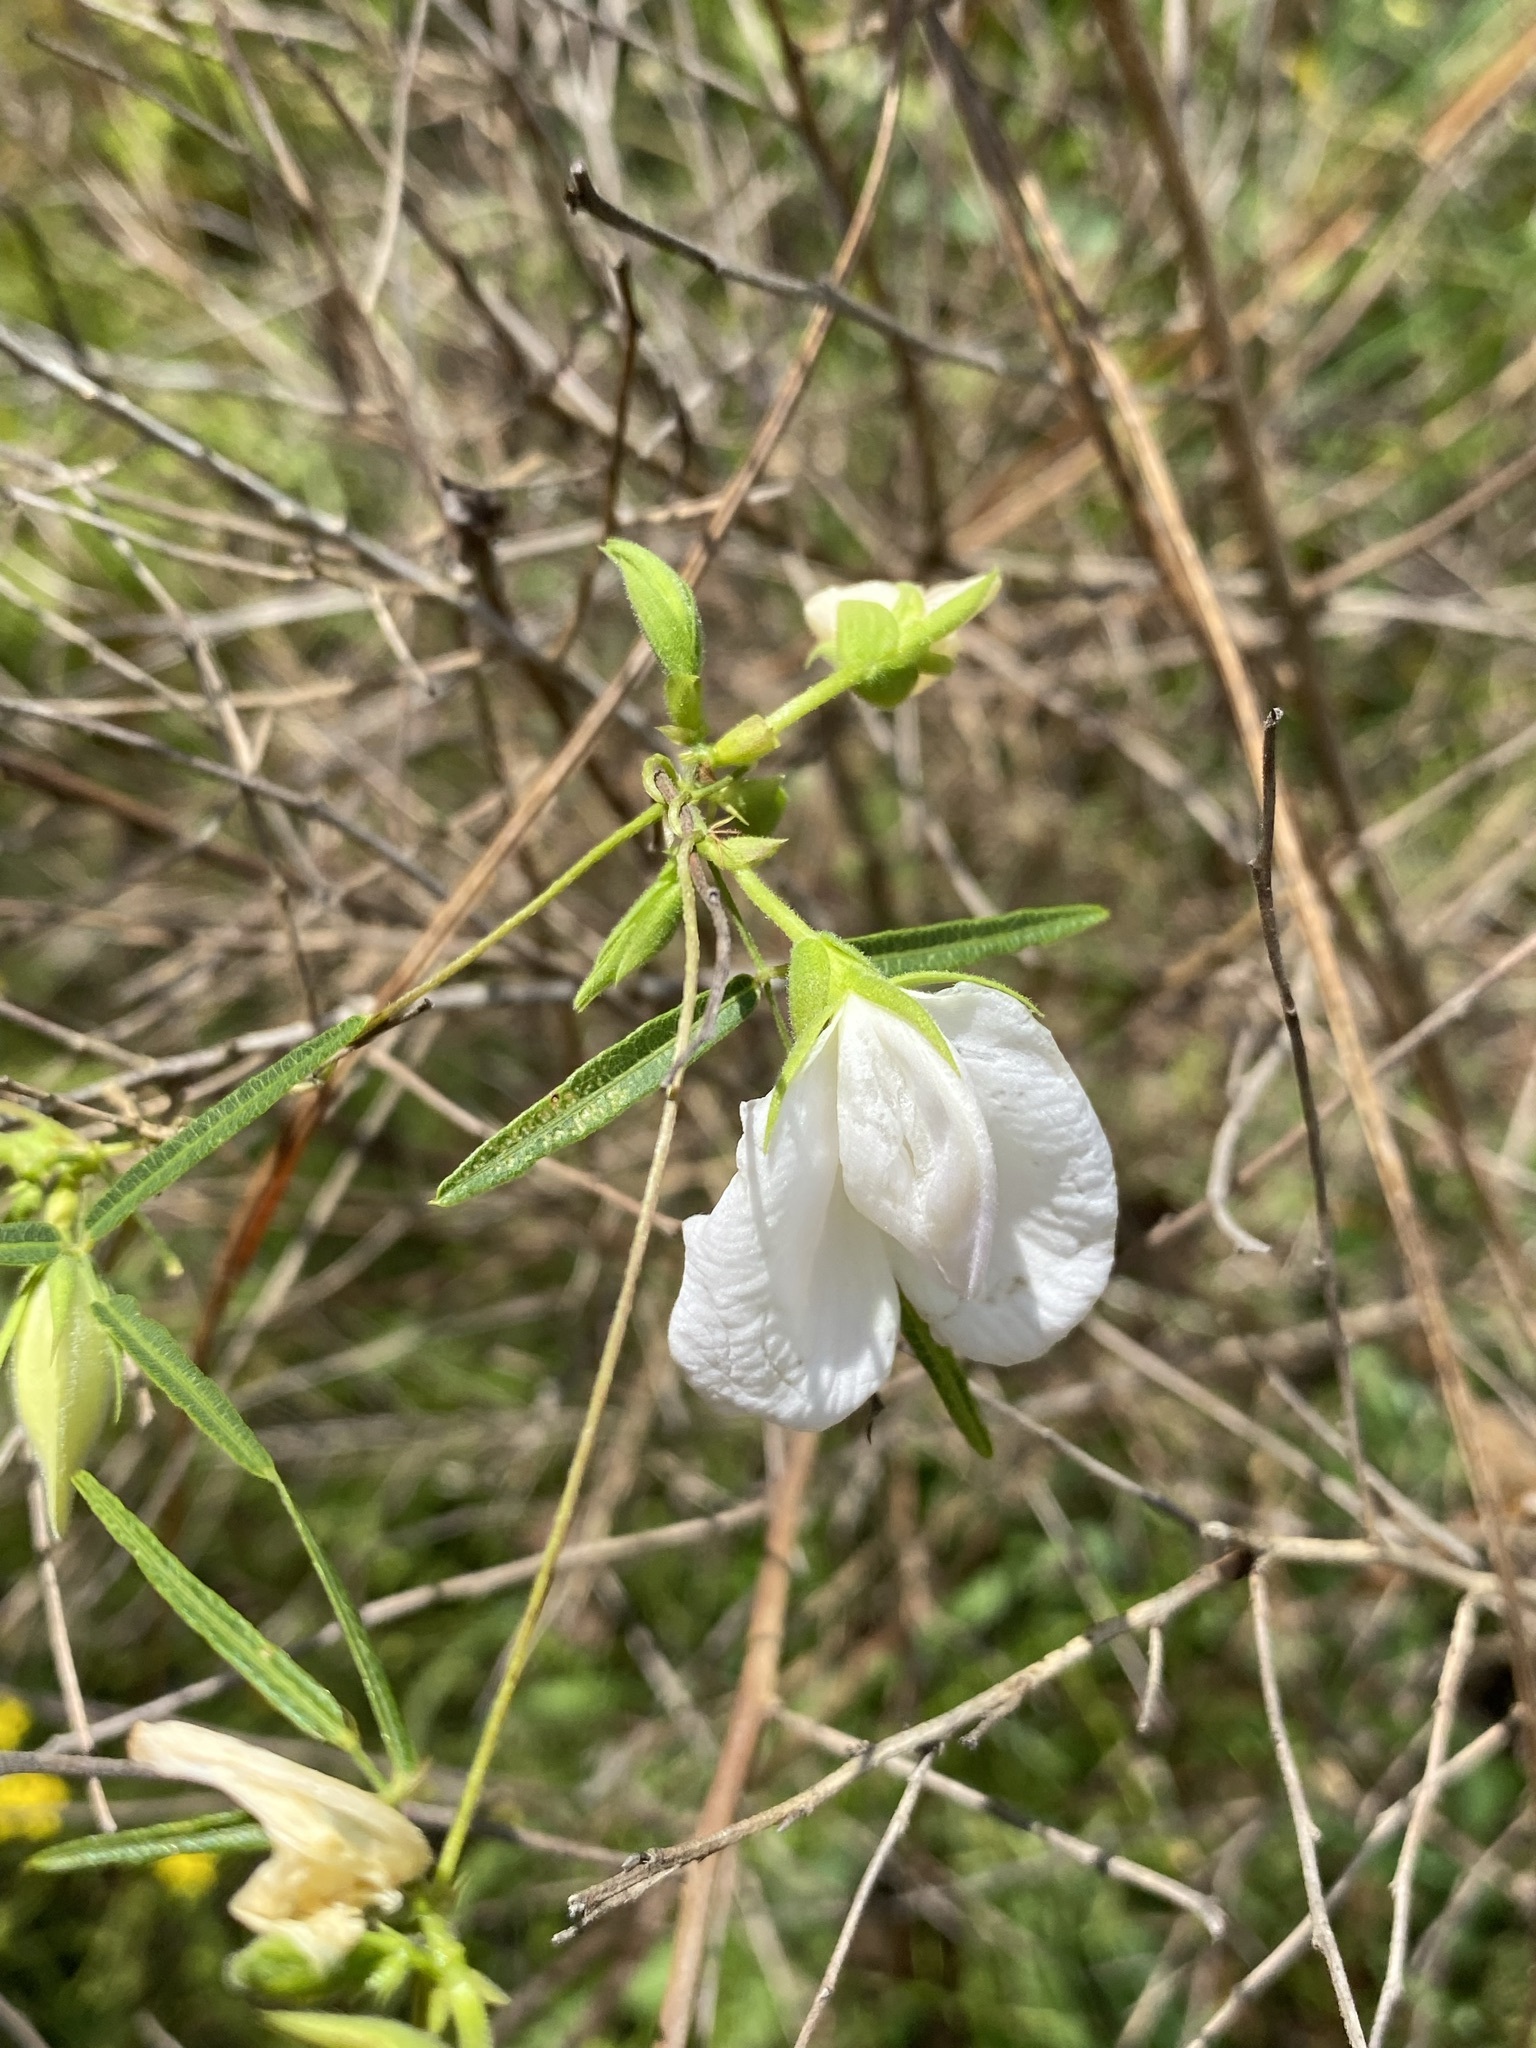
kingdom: Plantae
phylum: Tracheophyta
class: Magnoliopsida
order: Fabales
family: Fabaceae
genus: Centrosema
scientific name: Centrosema virginianum
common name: Butterfly-pea
